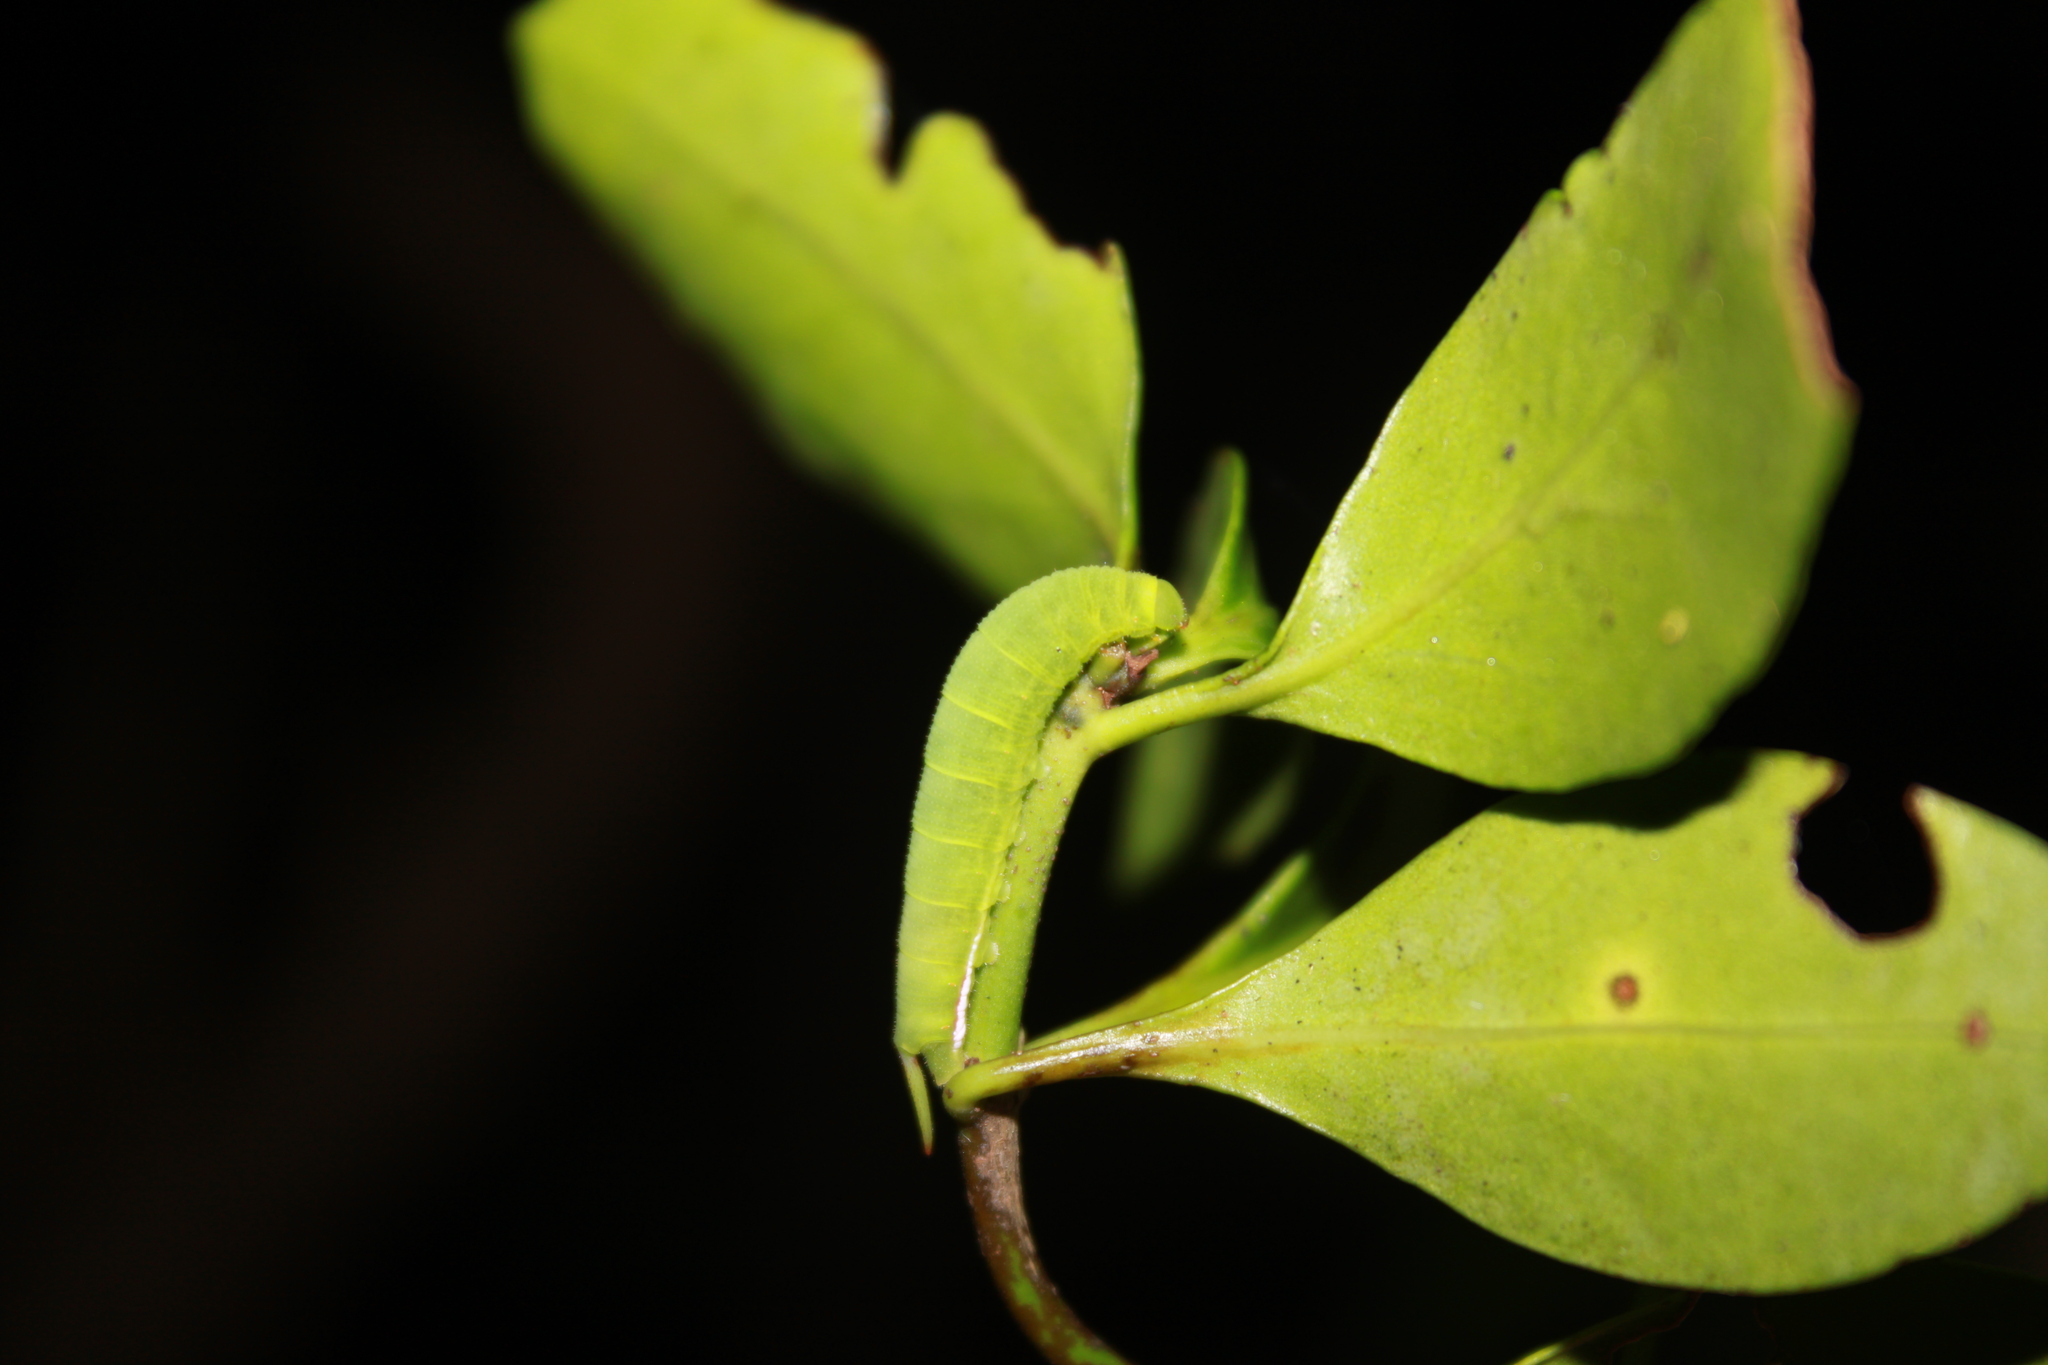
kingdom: Animalia
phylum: Arthropoda
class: Insecta
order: Lepidoptera
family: Sphingidae
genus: Cautethia
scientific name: Cautethia grotei
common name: Grote's sphinx
